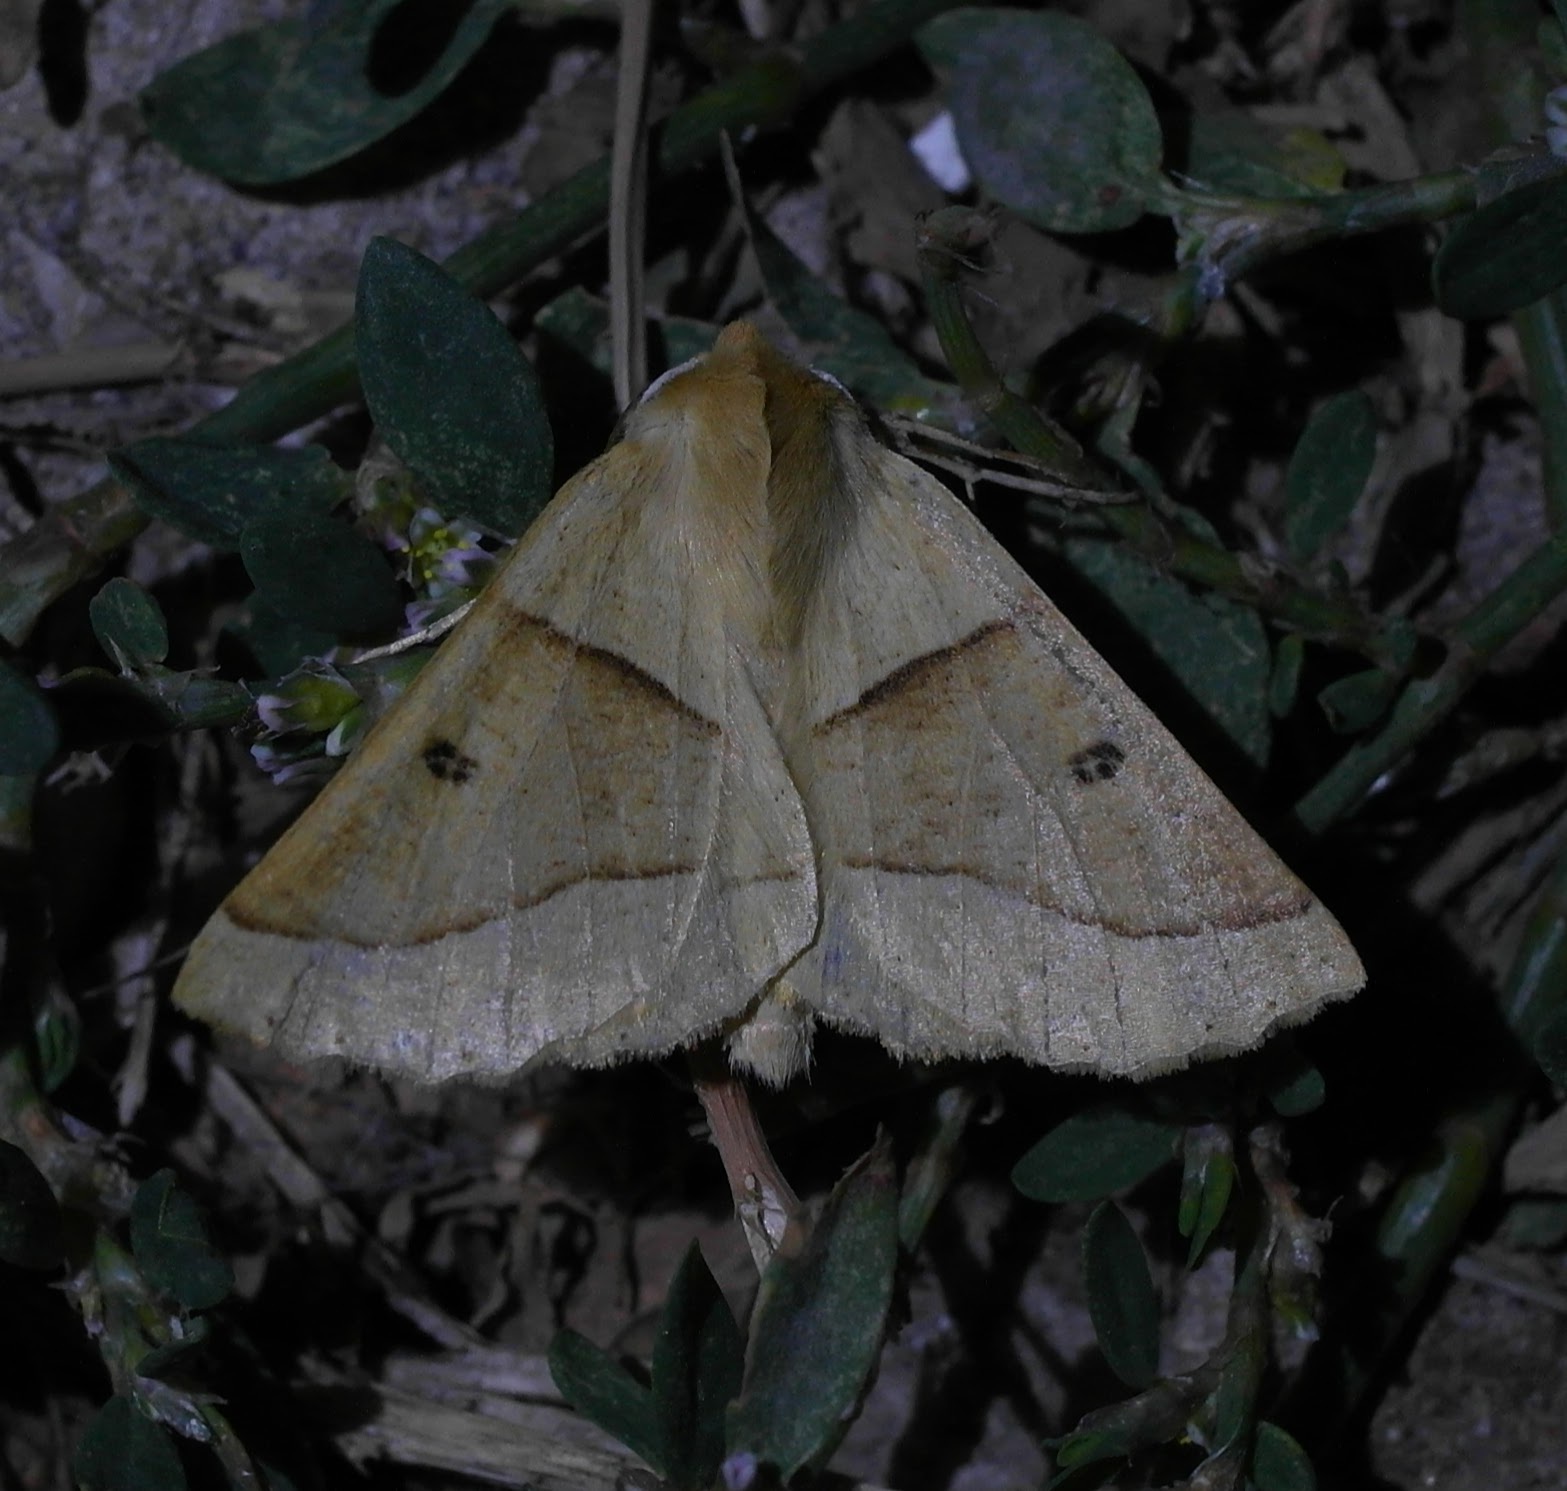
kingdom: Animalia
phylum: Arthropoda
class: Insecta
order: Lepidoptera
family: Geometridae
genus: Crocallis
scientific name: Crocallis elinguaria
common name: Scalloped oak
